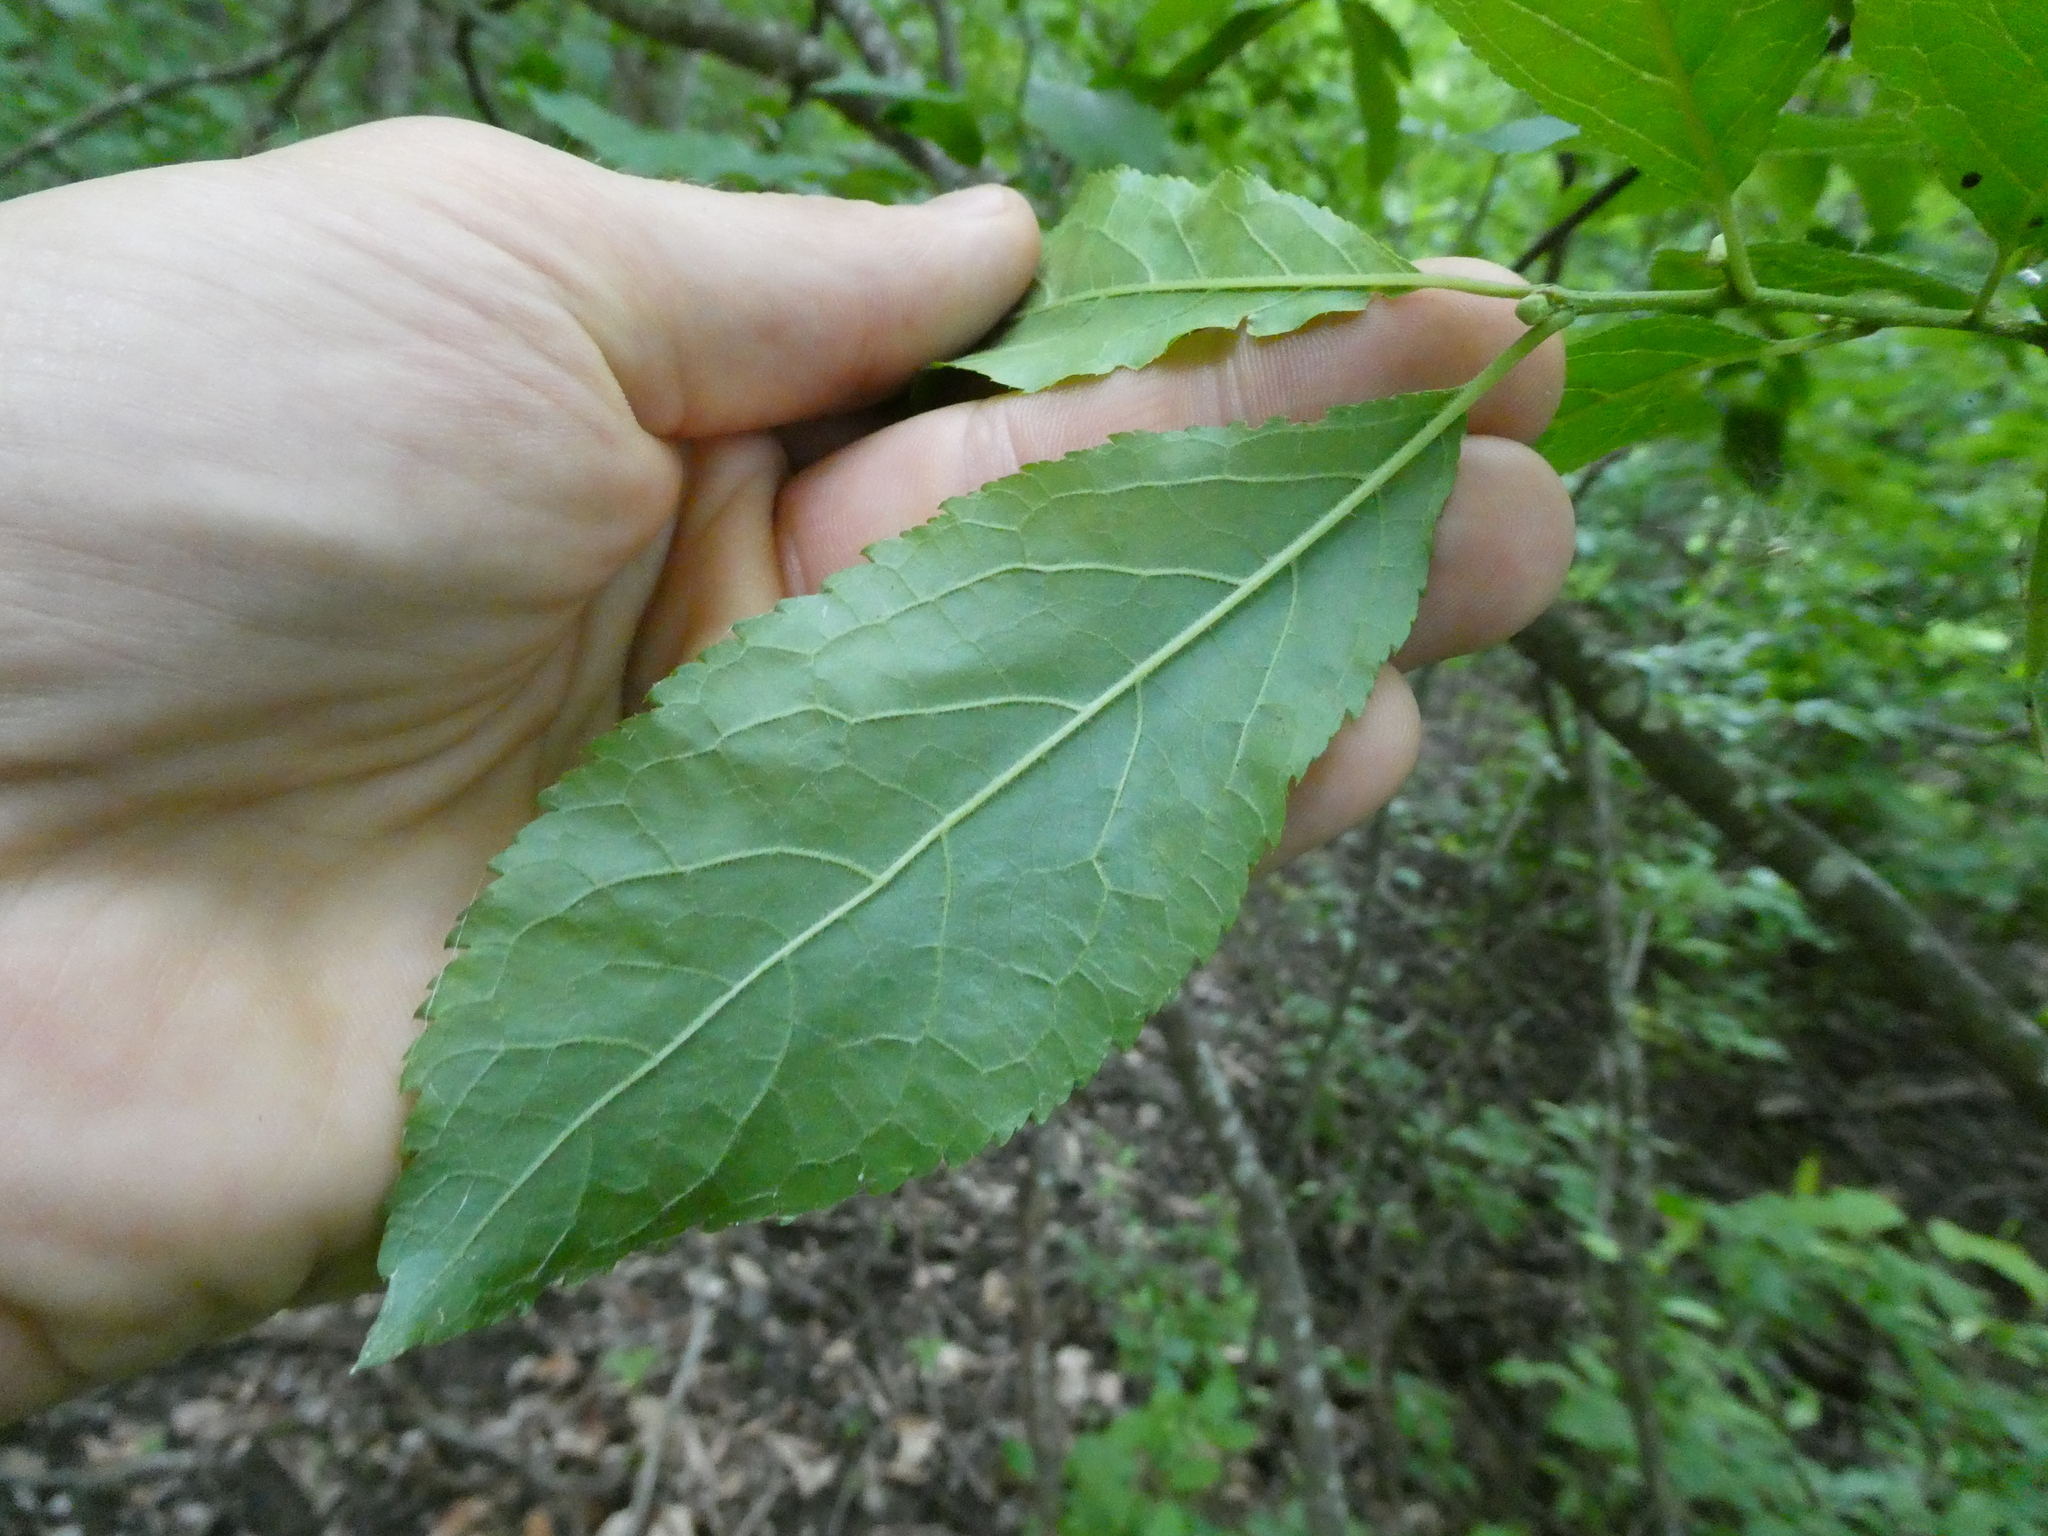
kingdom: Plantae
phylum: Tracheophyta
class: Magnoliopsida
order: Aquifoliales
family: Aquifoliaceae
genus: Ilex
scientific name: Ilex verticillata
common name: Virginia winterberry
